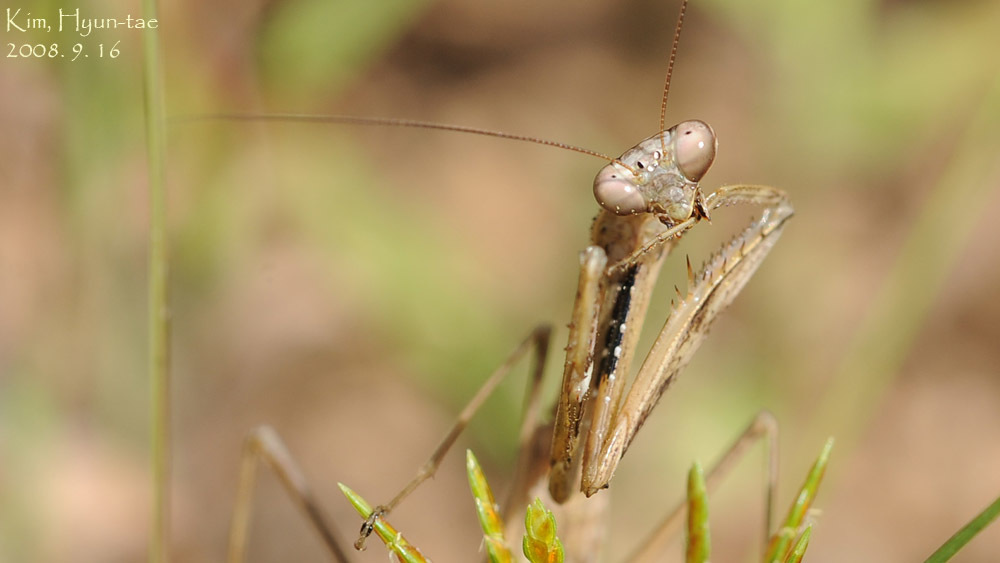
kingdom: Animalia
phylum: Arthropoda
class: Insecta
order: Mantodea
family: Mantidae
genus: Statilia
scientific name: Statilia maculata
